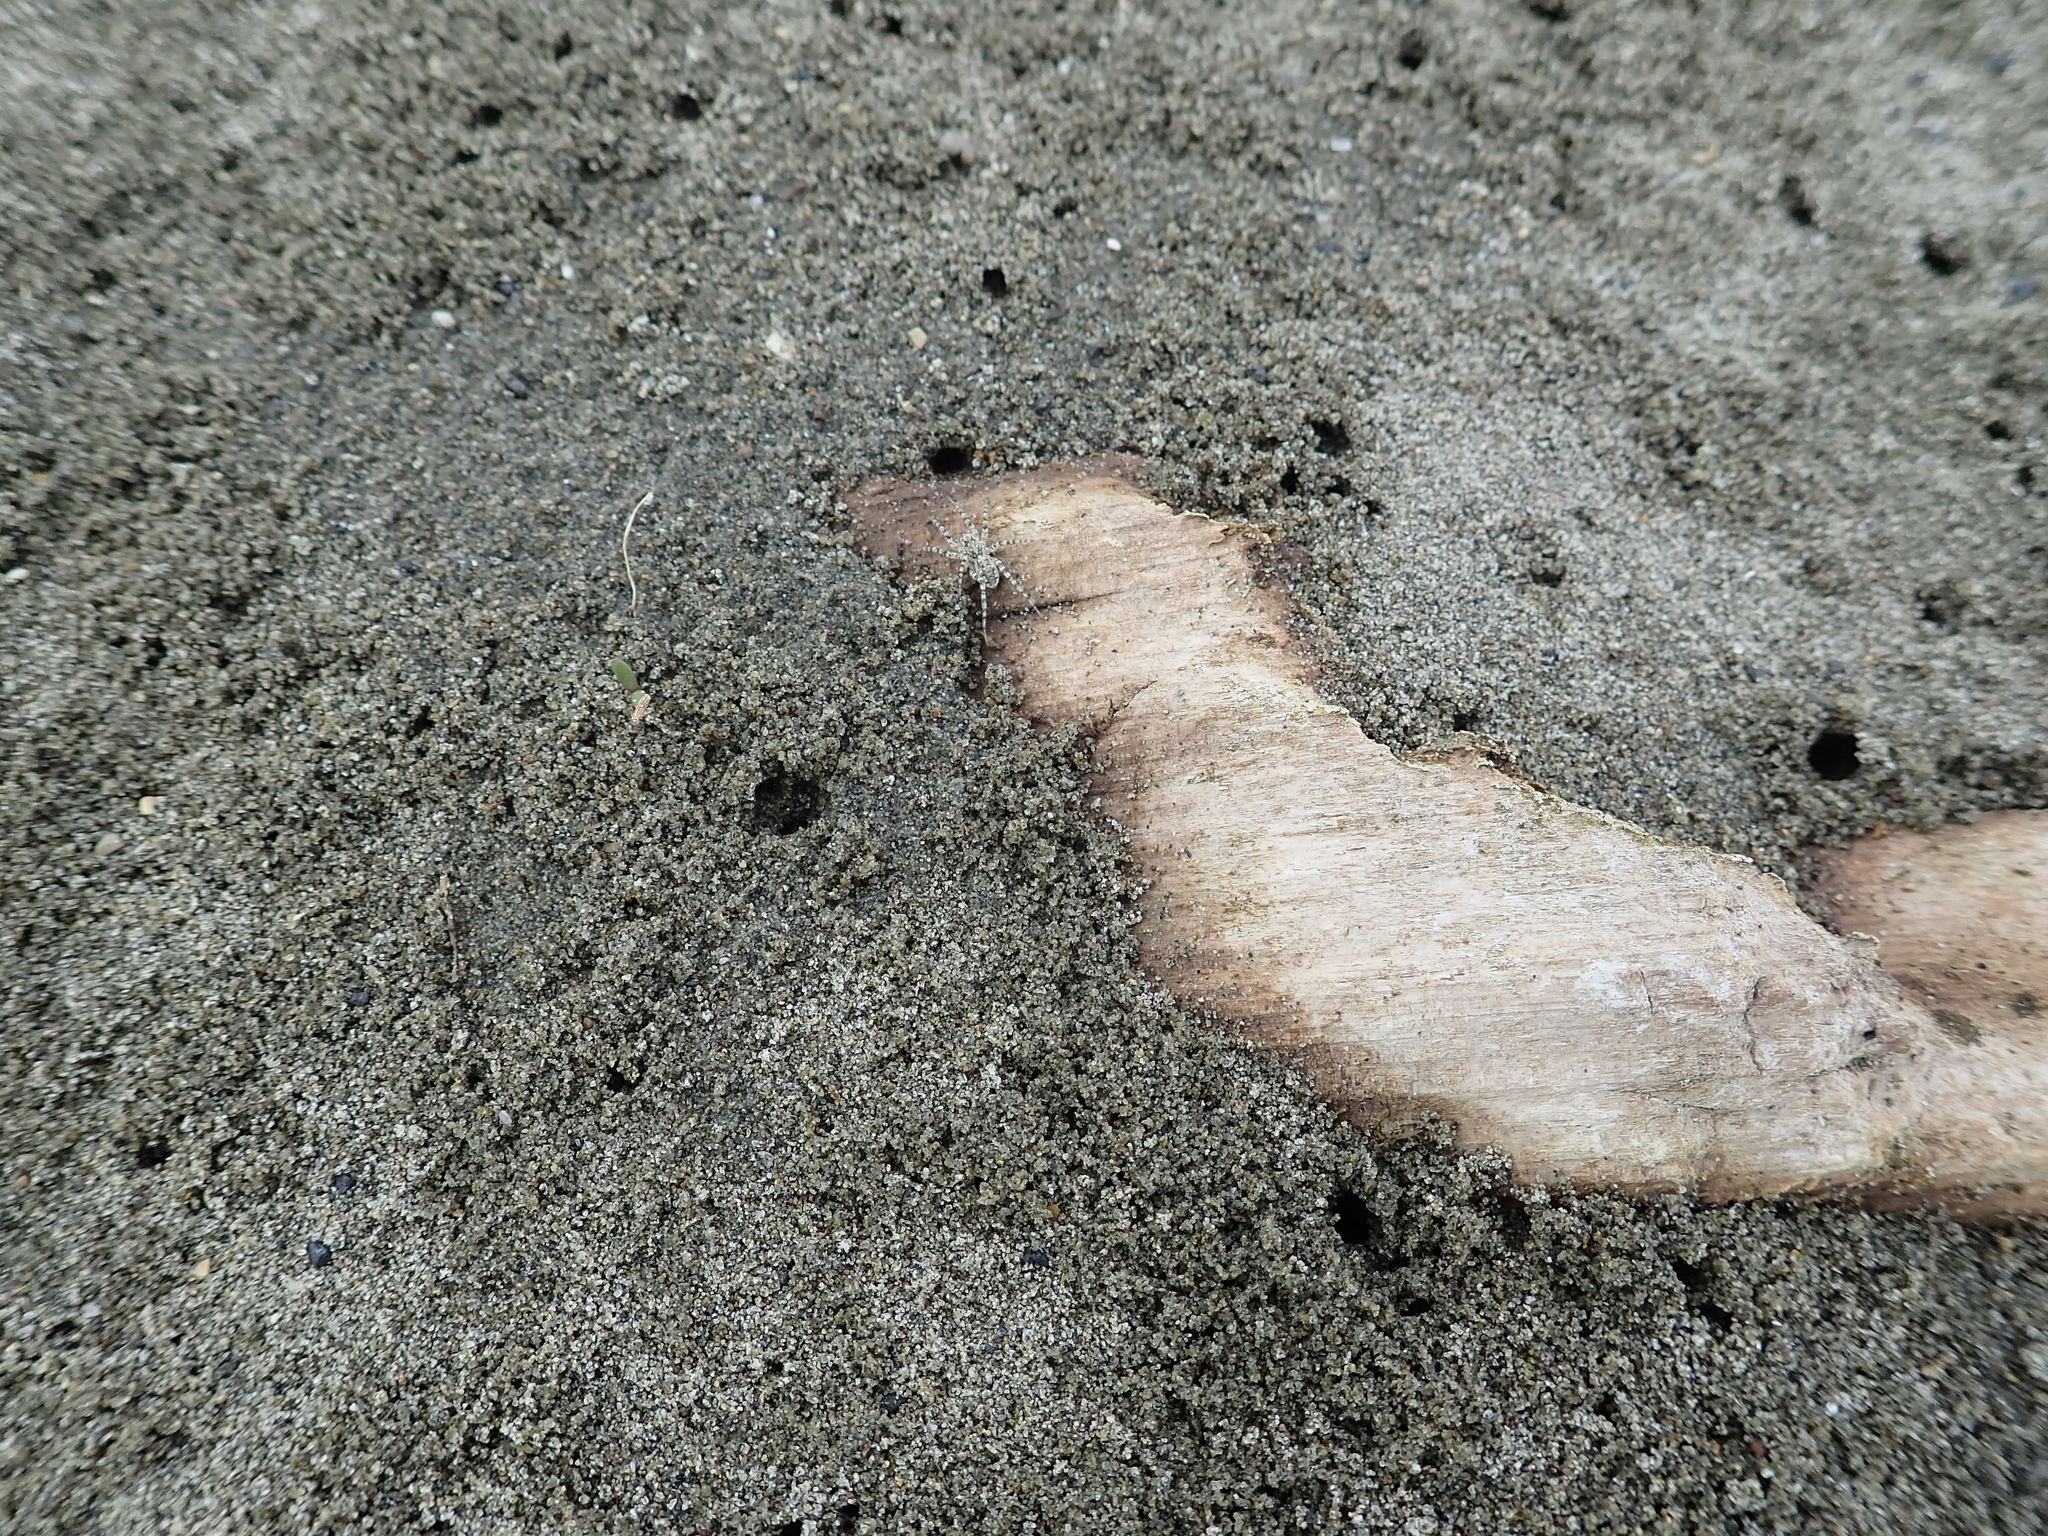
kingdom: Animalia
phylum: Arthropoda
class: Arachnida
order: Araneae
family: Lycosidae
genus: Anoteropsis
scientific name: Anoteropsis litoralis
